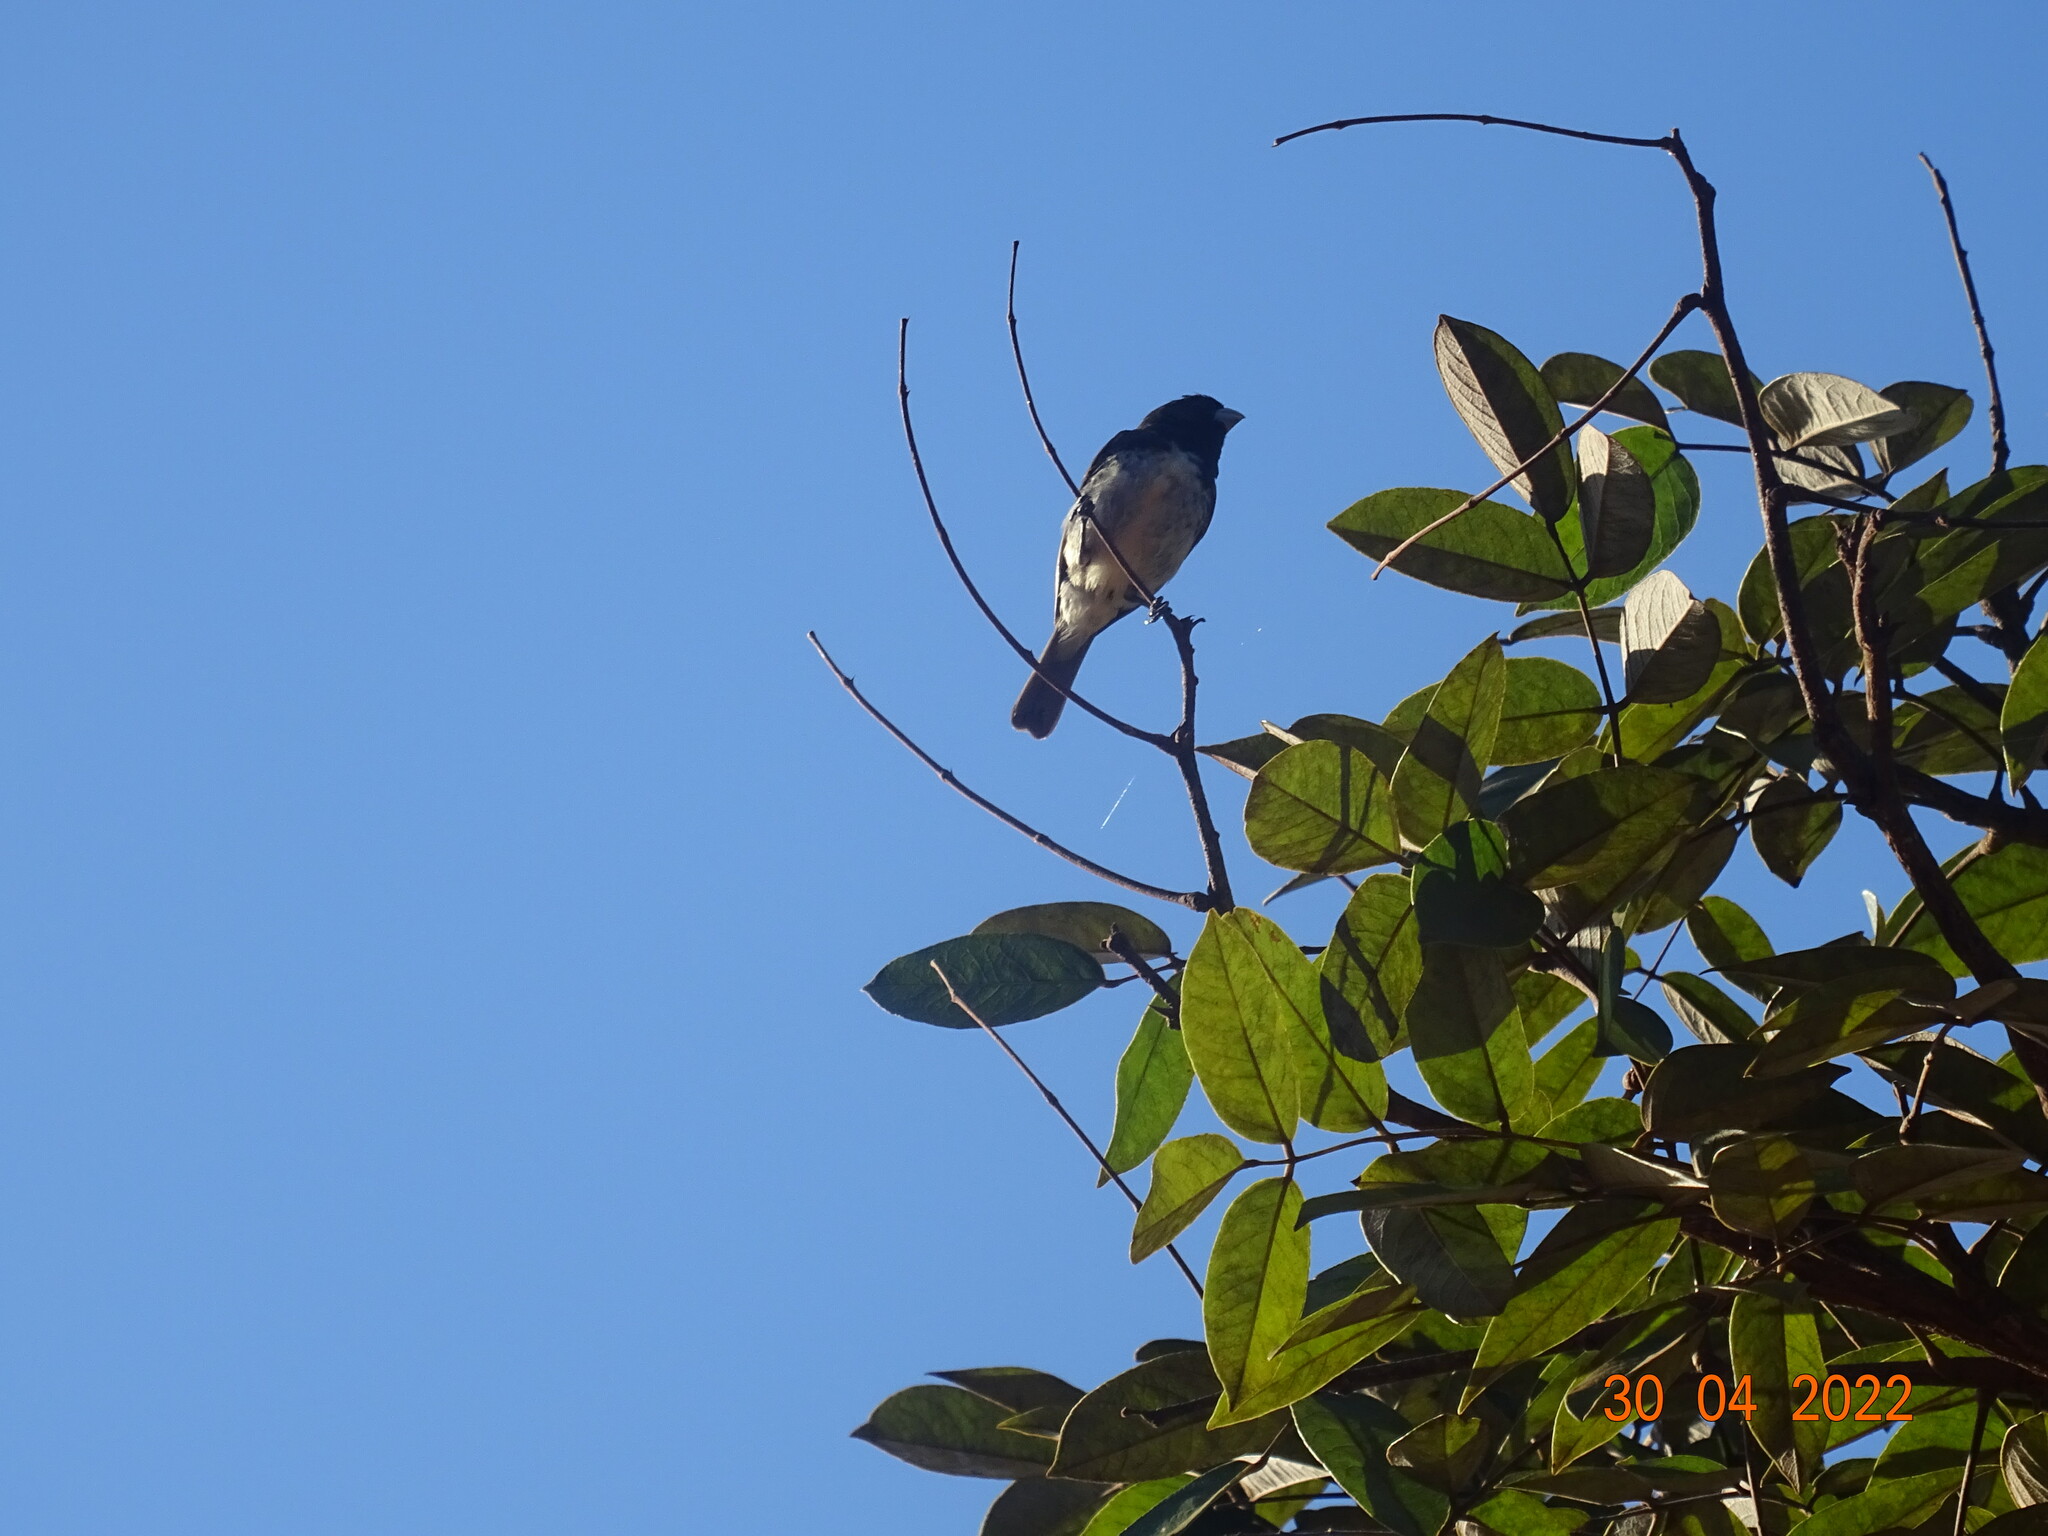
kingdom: Animalia
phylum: Chordata
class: Aves
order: Passeriformes
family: Thraupidae
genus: Sporophila
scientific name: Sporophila nigricollis
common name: Yellow-bellied seedeater
